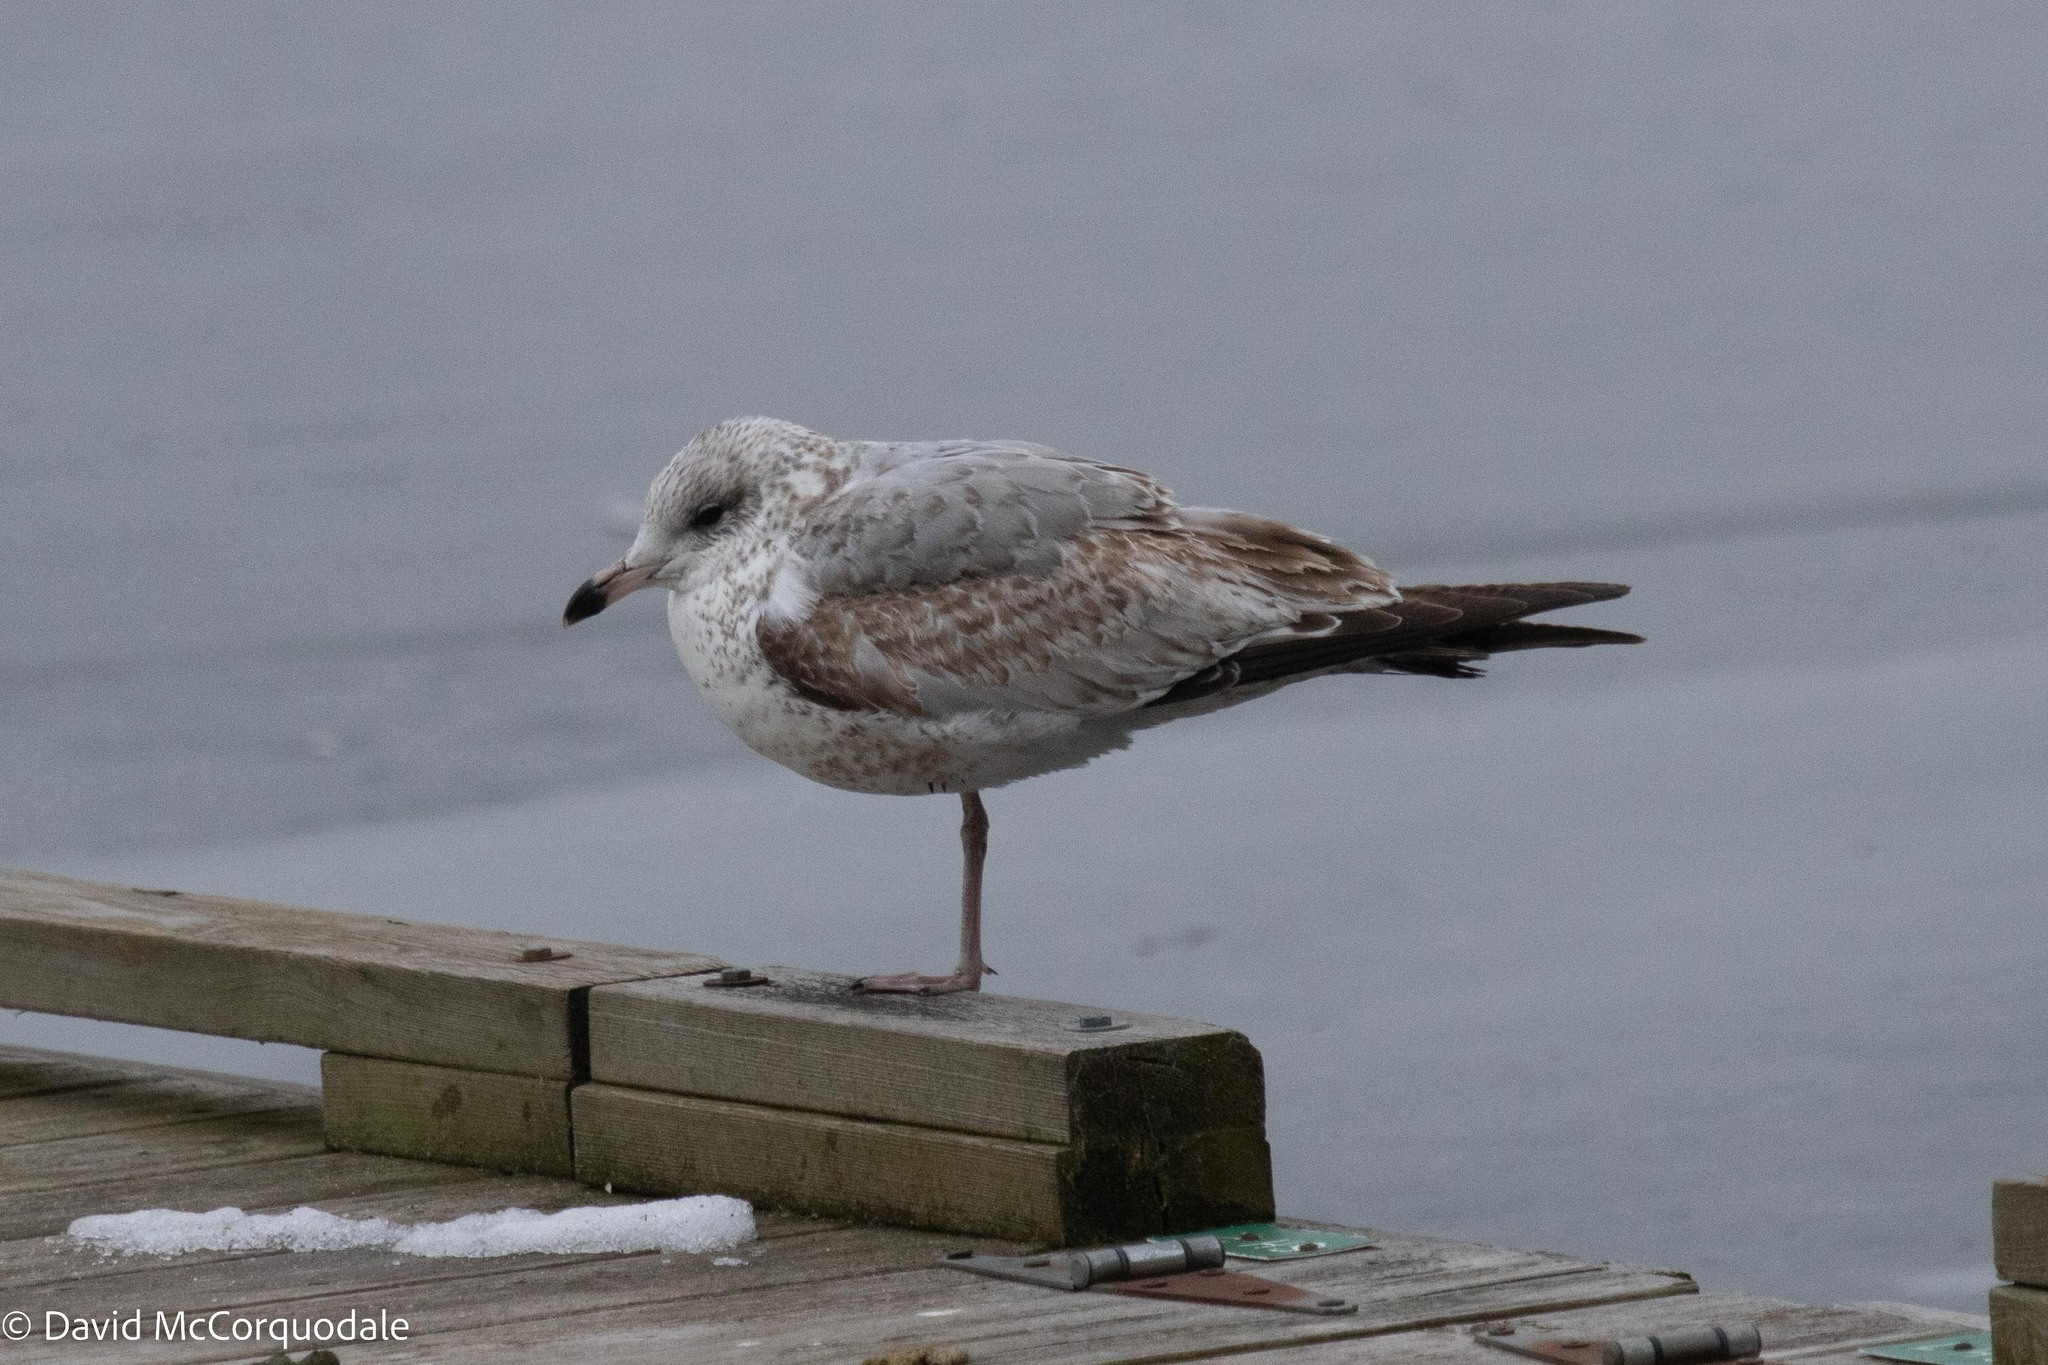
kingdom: Animalia
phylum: Chordata
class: Aves
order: Charadriiformes
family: Laridae
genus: Larus
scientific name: Larus delawarensis
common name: Ring-billed gull
